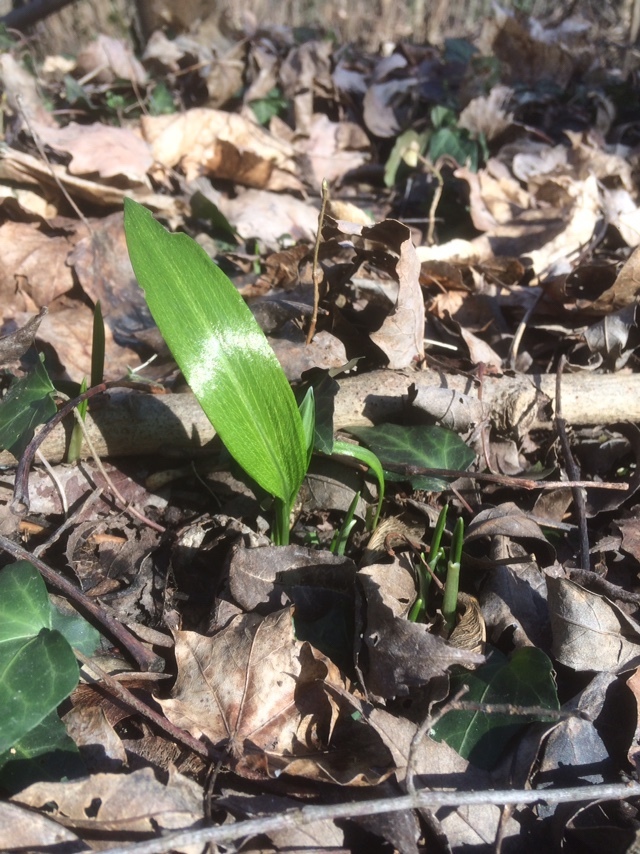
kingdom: Plantae
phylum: Tracheophyta
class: Liliopsida
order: Asparagales
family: Amaryllidaceae
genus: Allium
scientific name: Allium ursinum
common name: Ramsons
